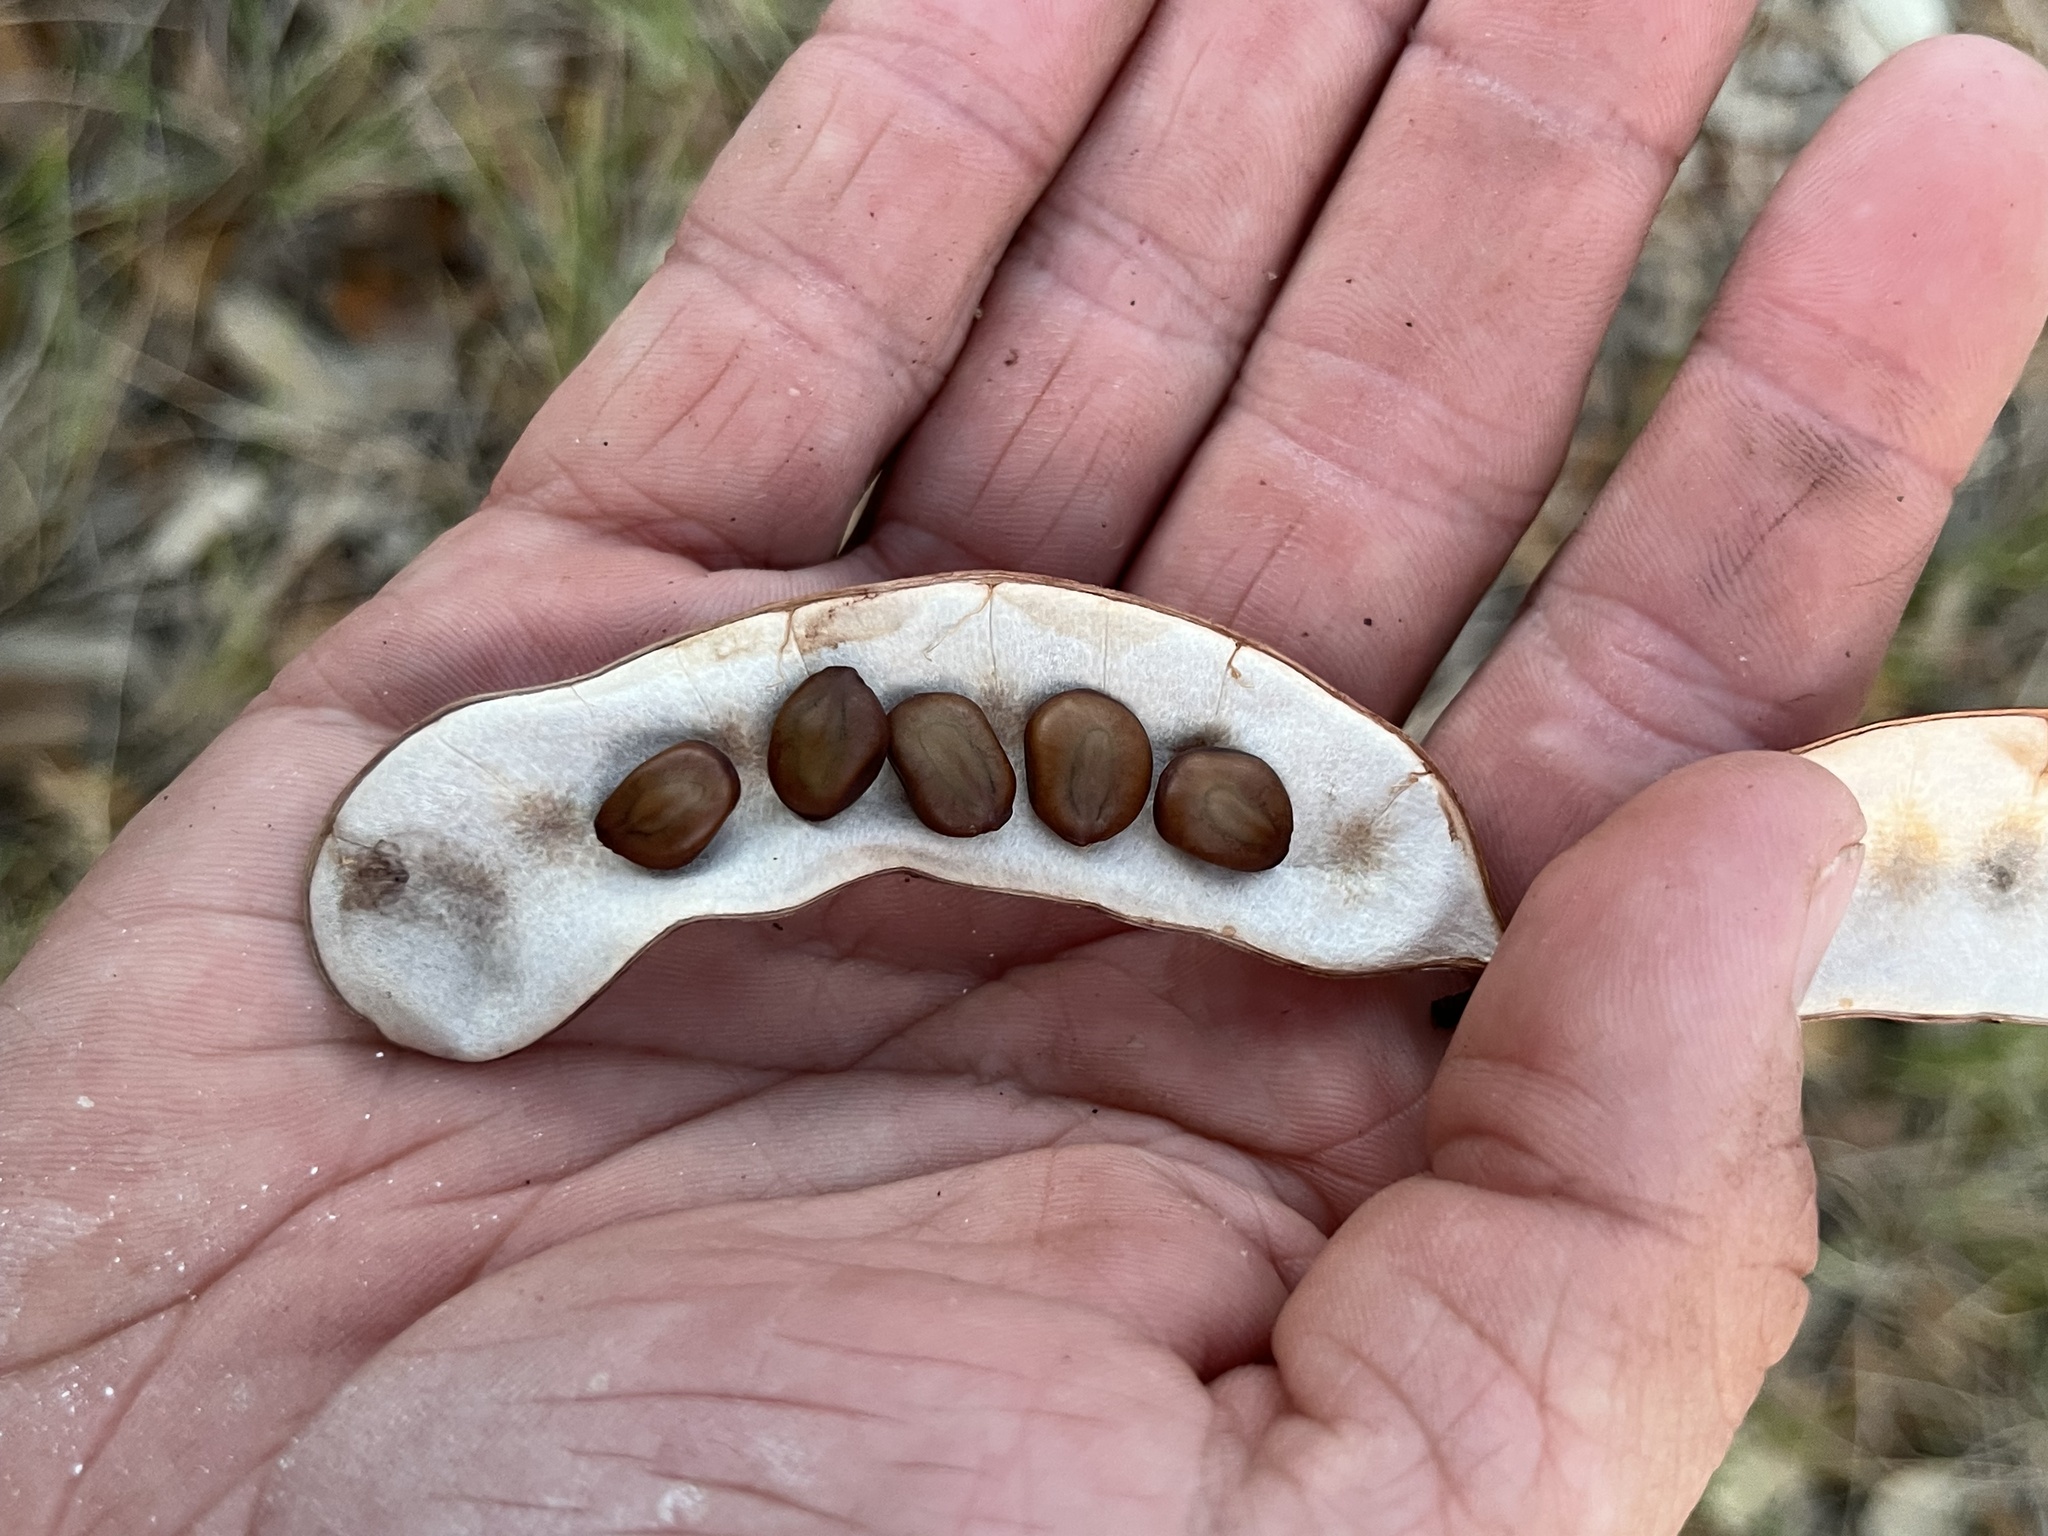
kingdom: Plantae
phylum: Tracheophyta
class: Magnoliopsida
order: Fabales
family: Fabaceae
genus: Senegalia
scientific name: Senegalia roemeriana
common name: Roemer's acacia
